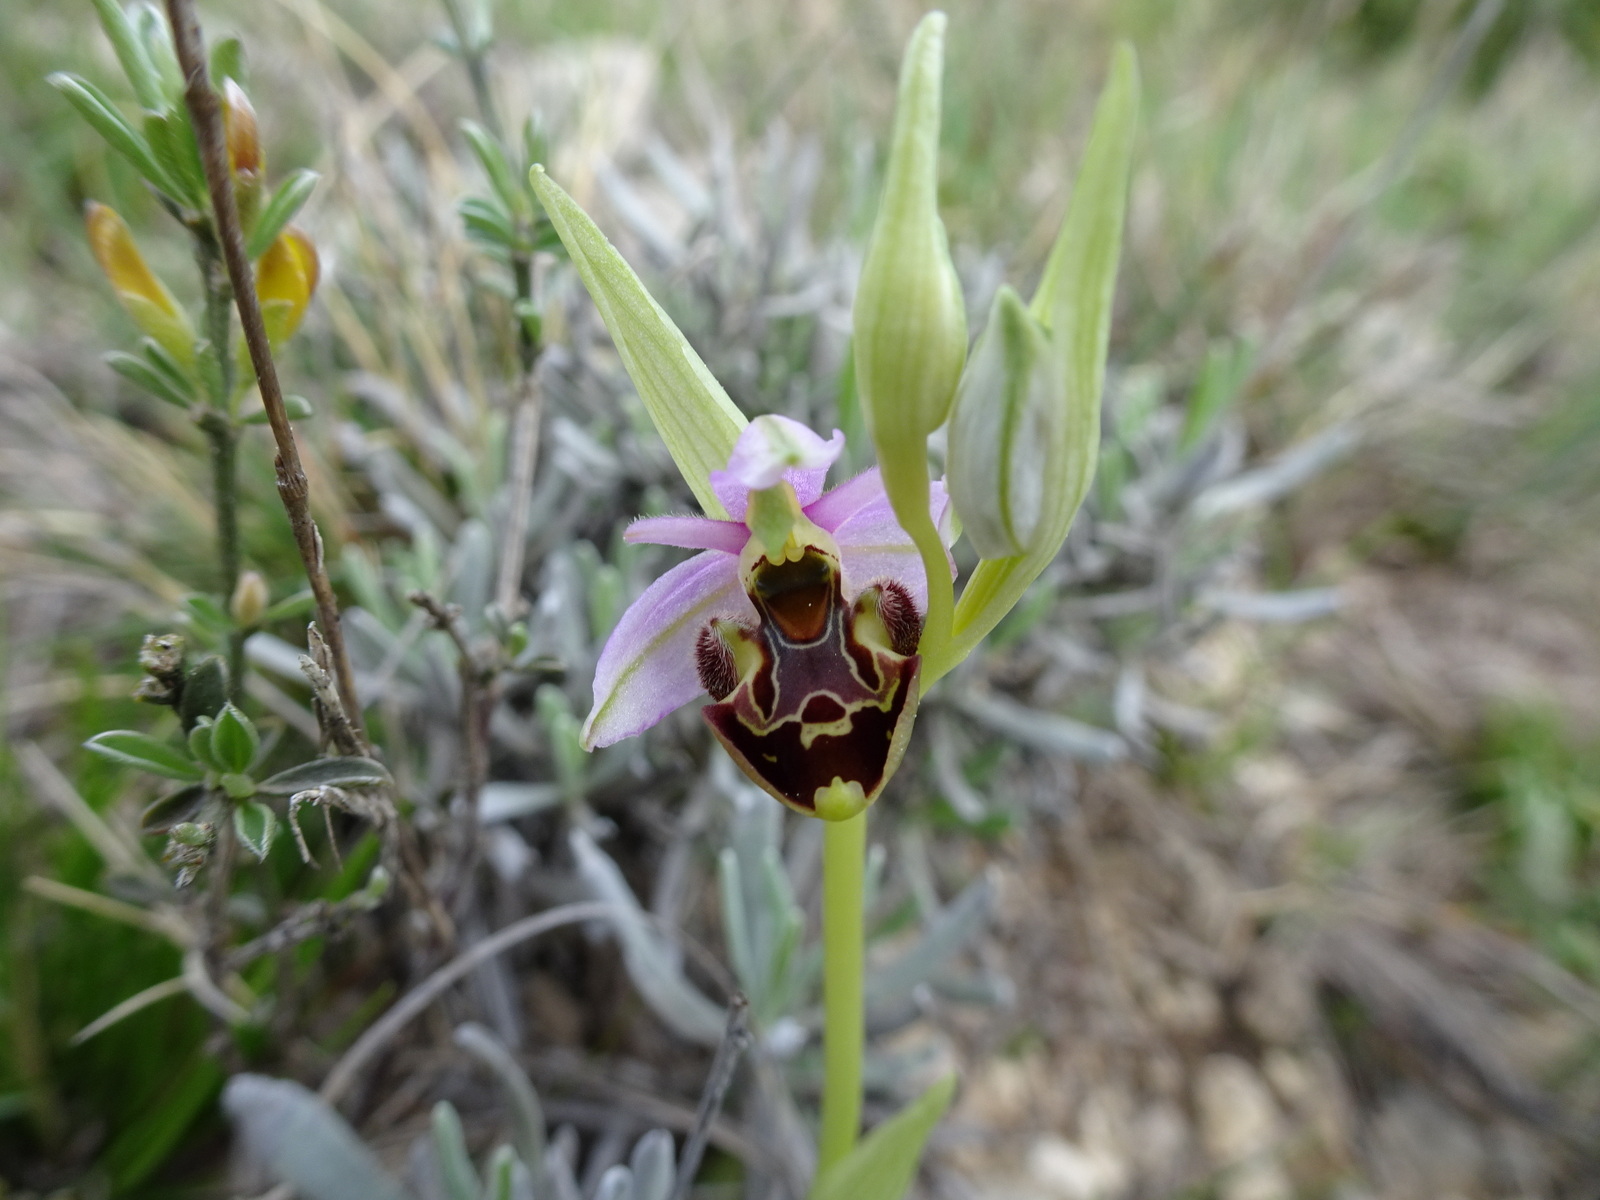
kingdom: Plantae
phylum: Tracheophyta
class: Liliopsida
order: Asparagales
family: Orchidaceae
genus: Ophrys
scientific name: Ophrys scolopax
